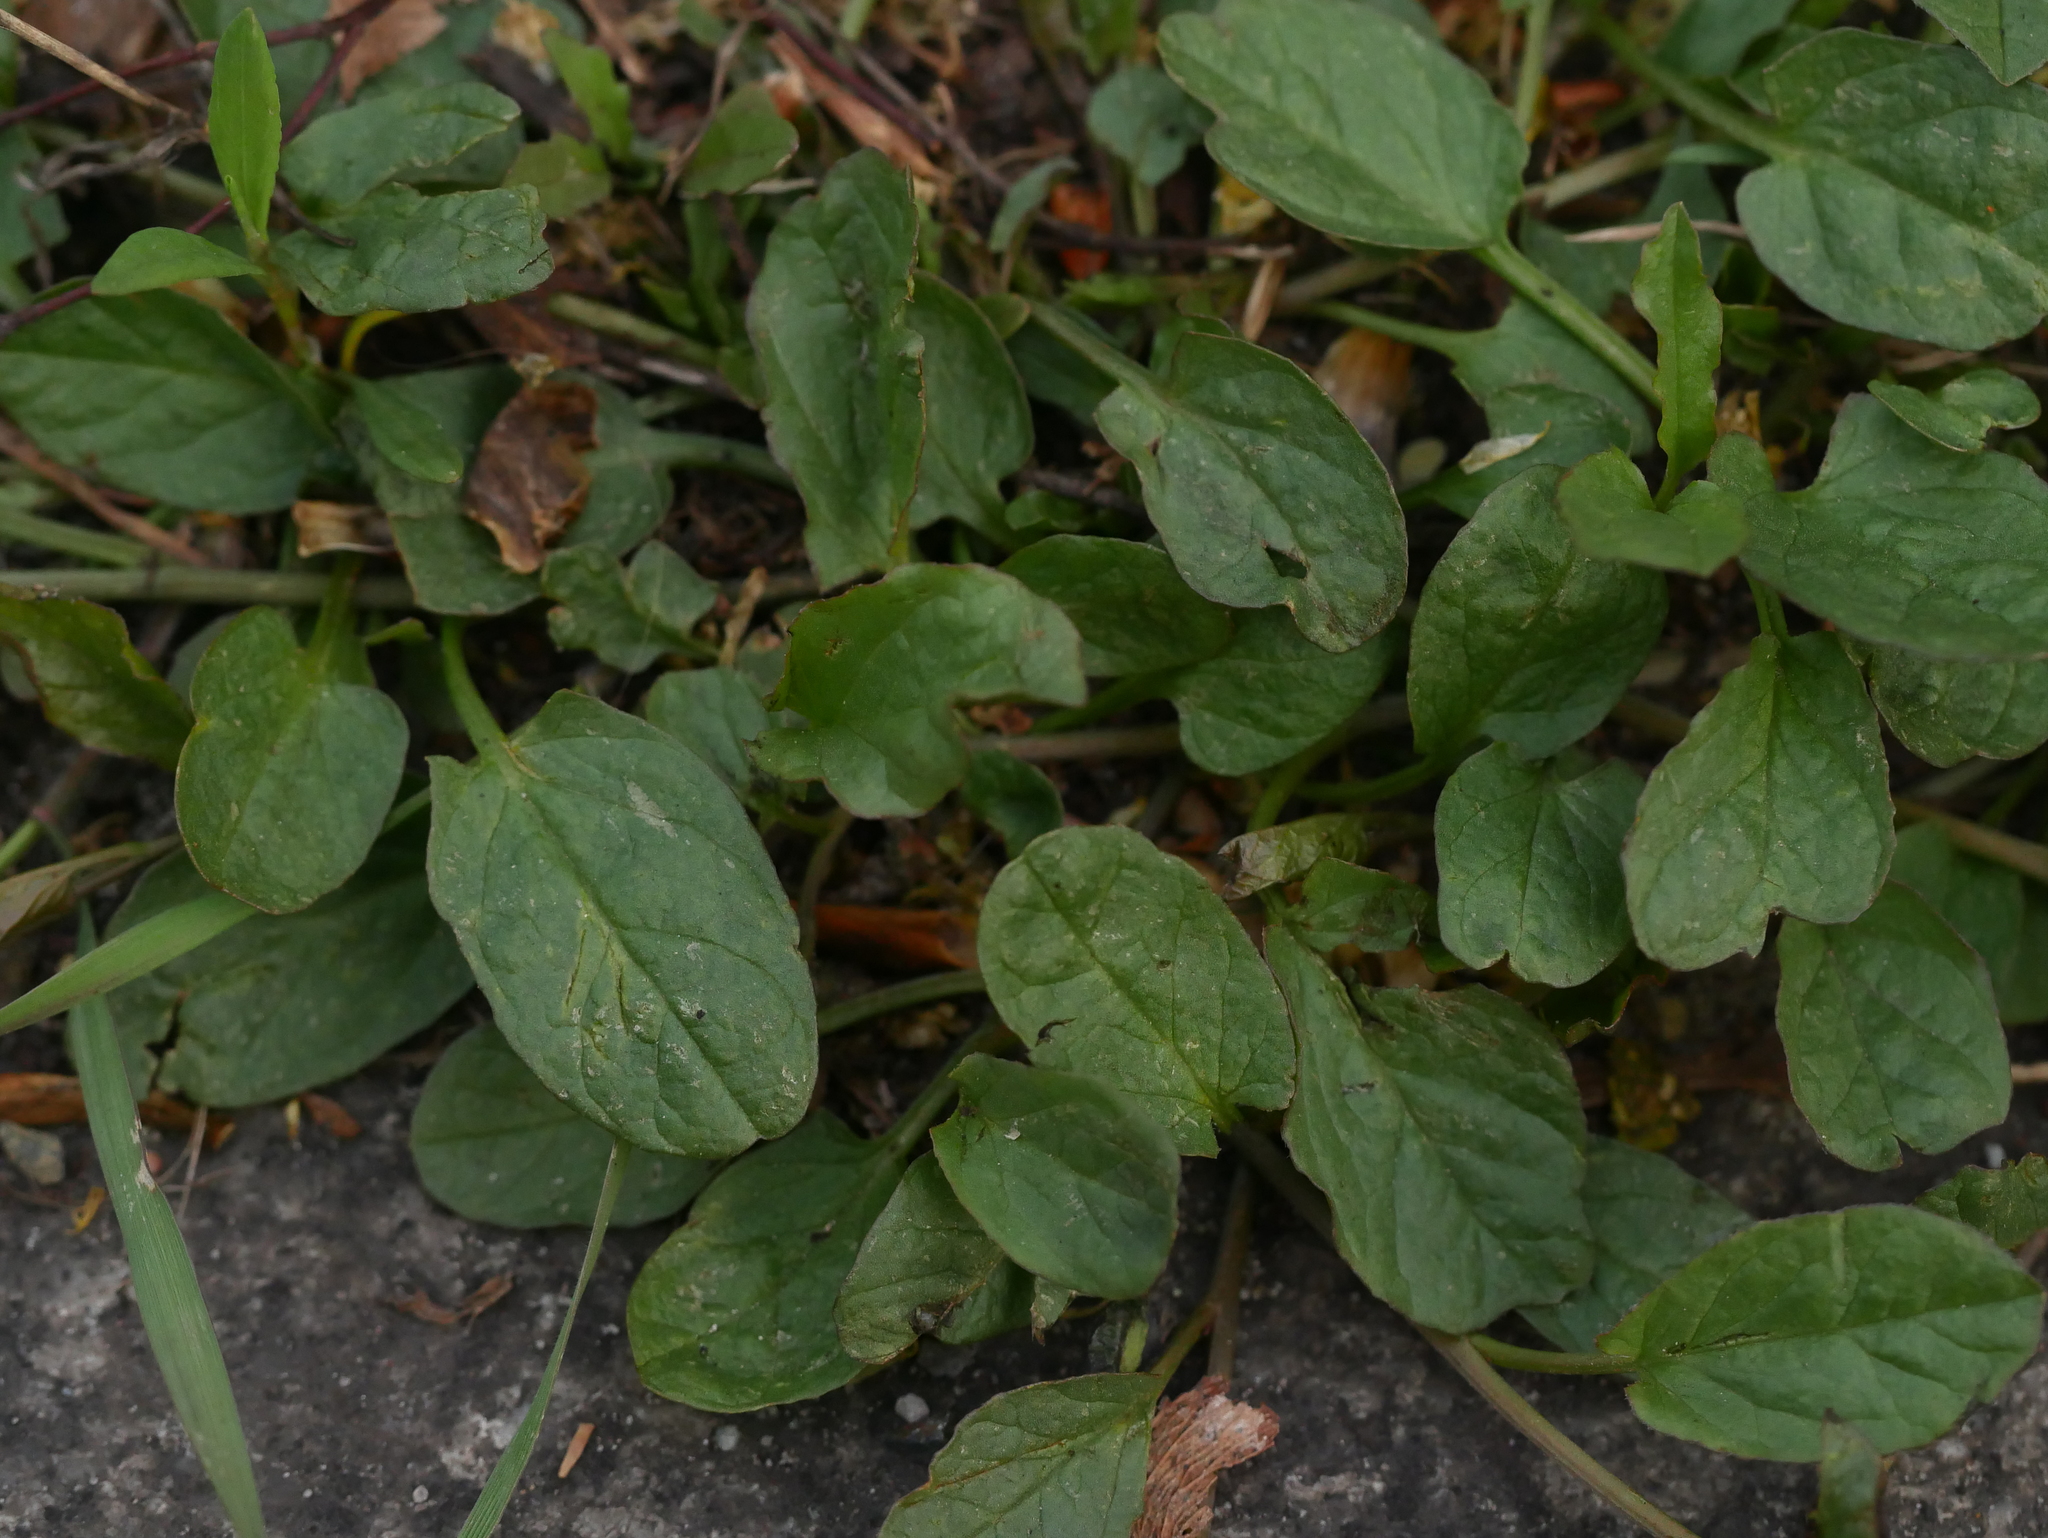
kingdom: Plantae
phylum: Tracheophyta
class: Magnoliopsida
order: Solanales
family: Convolvulaceae
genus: Convolvulus
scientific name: Convolvulus arvensis
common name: Field bindweed
